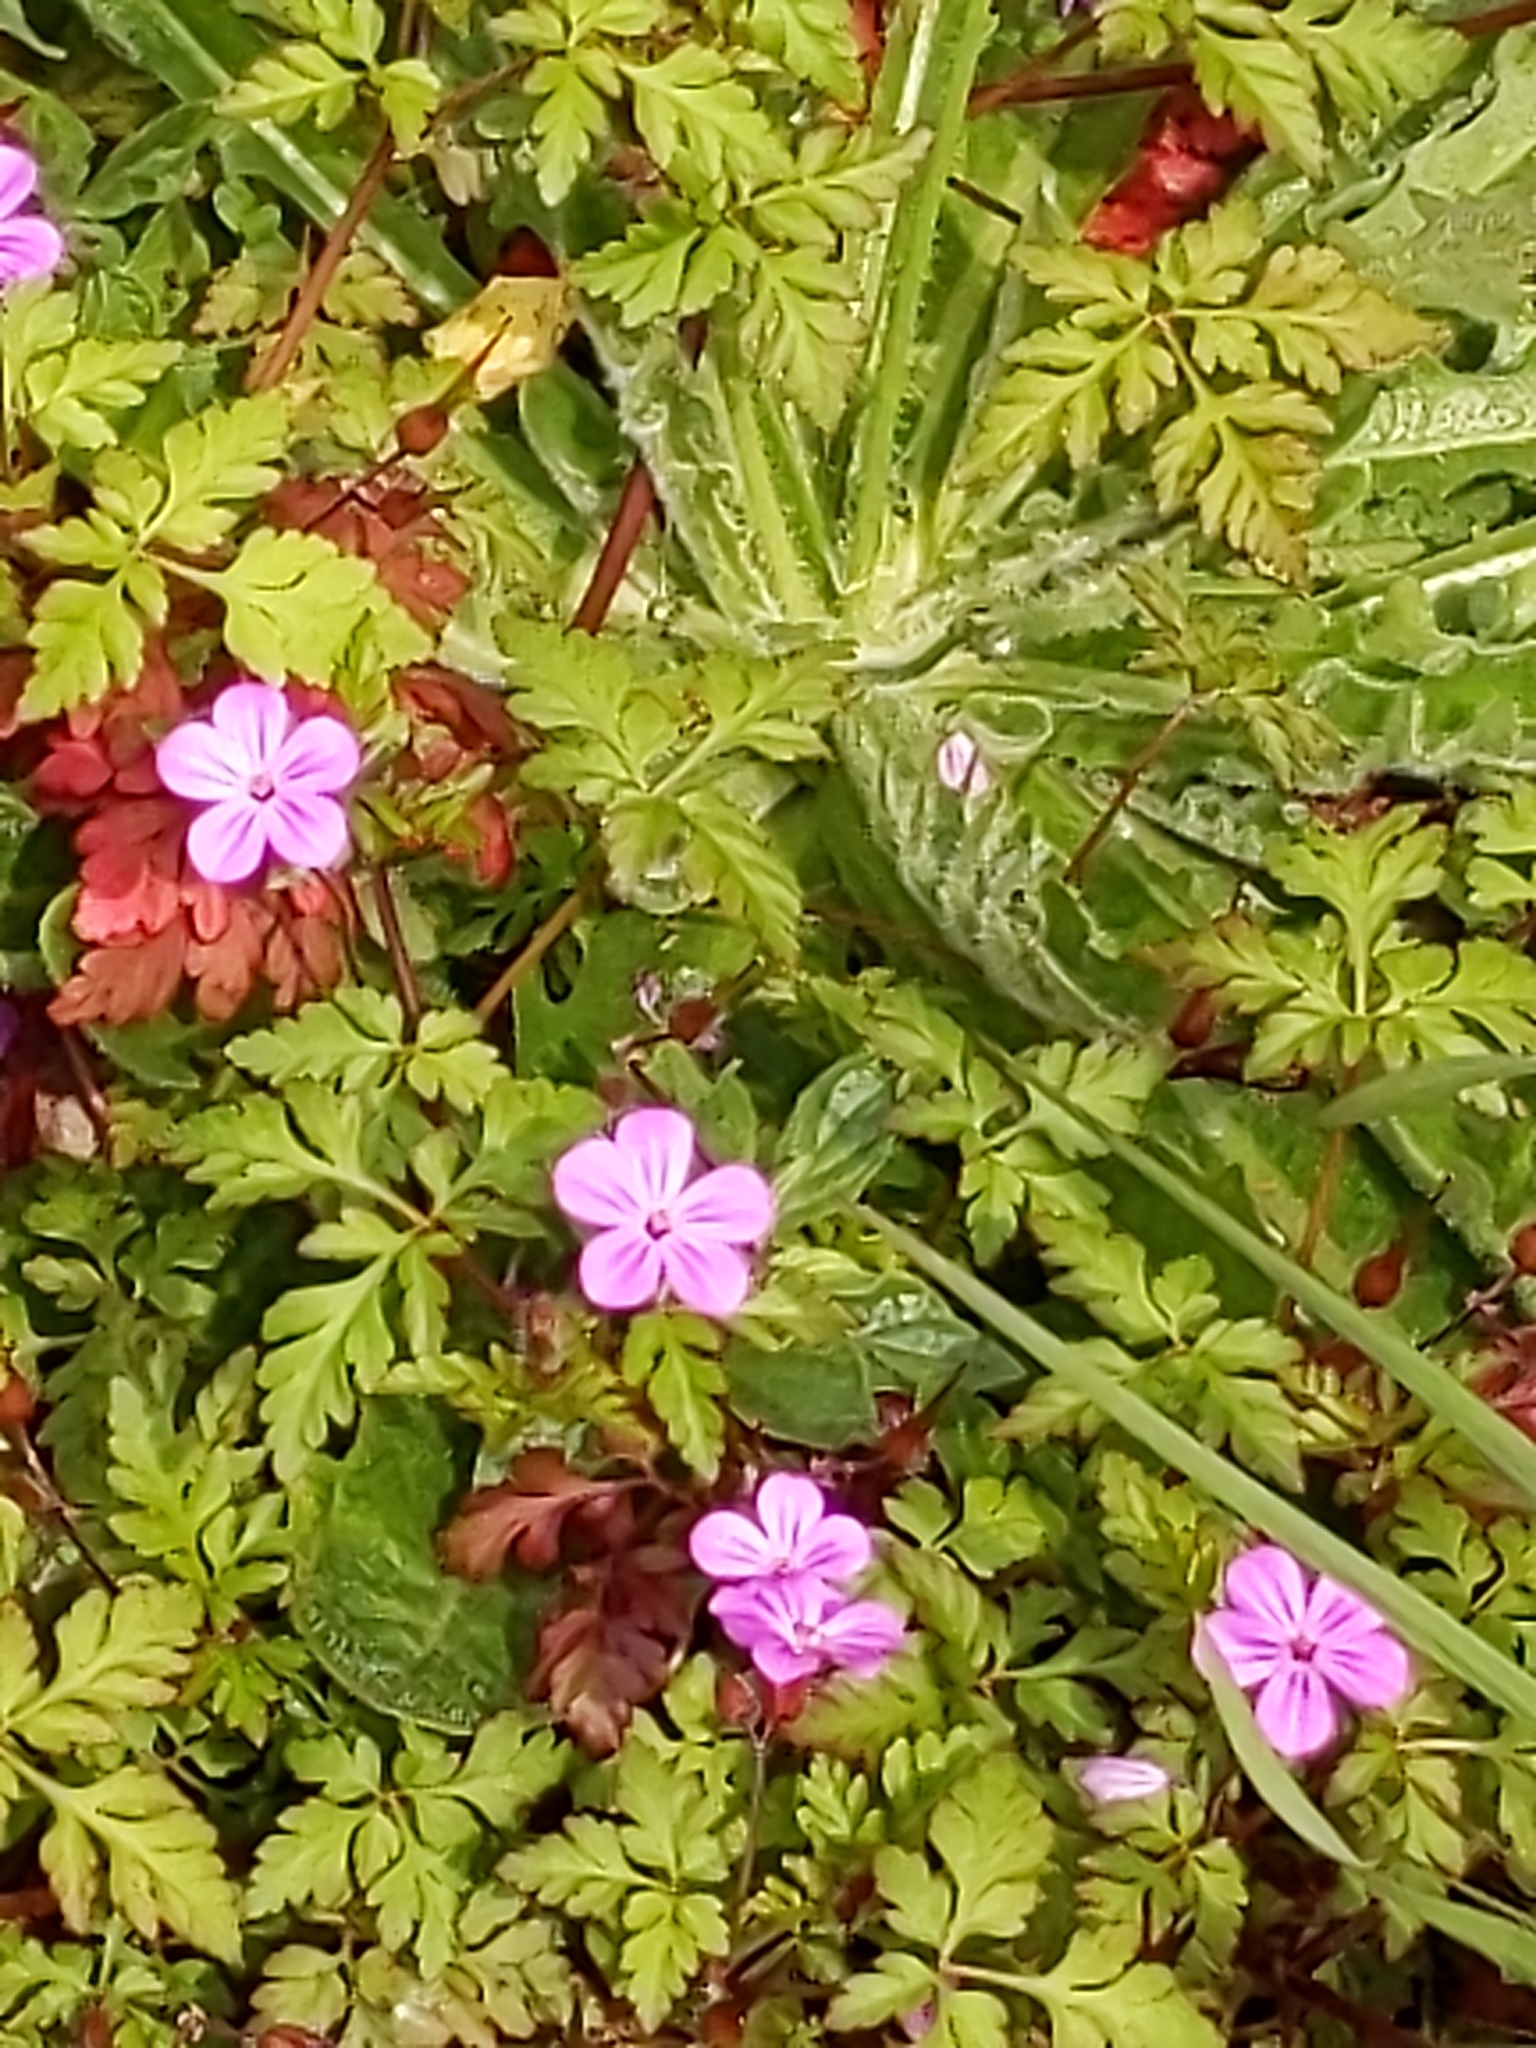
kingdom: Plantae
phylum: Tracheophyta
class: Magnoliopsida
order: Geraniales
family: Geraniaceae
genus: Geranium
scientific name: Geranium robertianum
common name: Herb-robert
